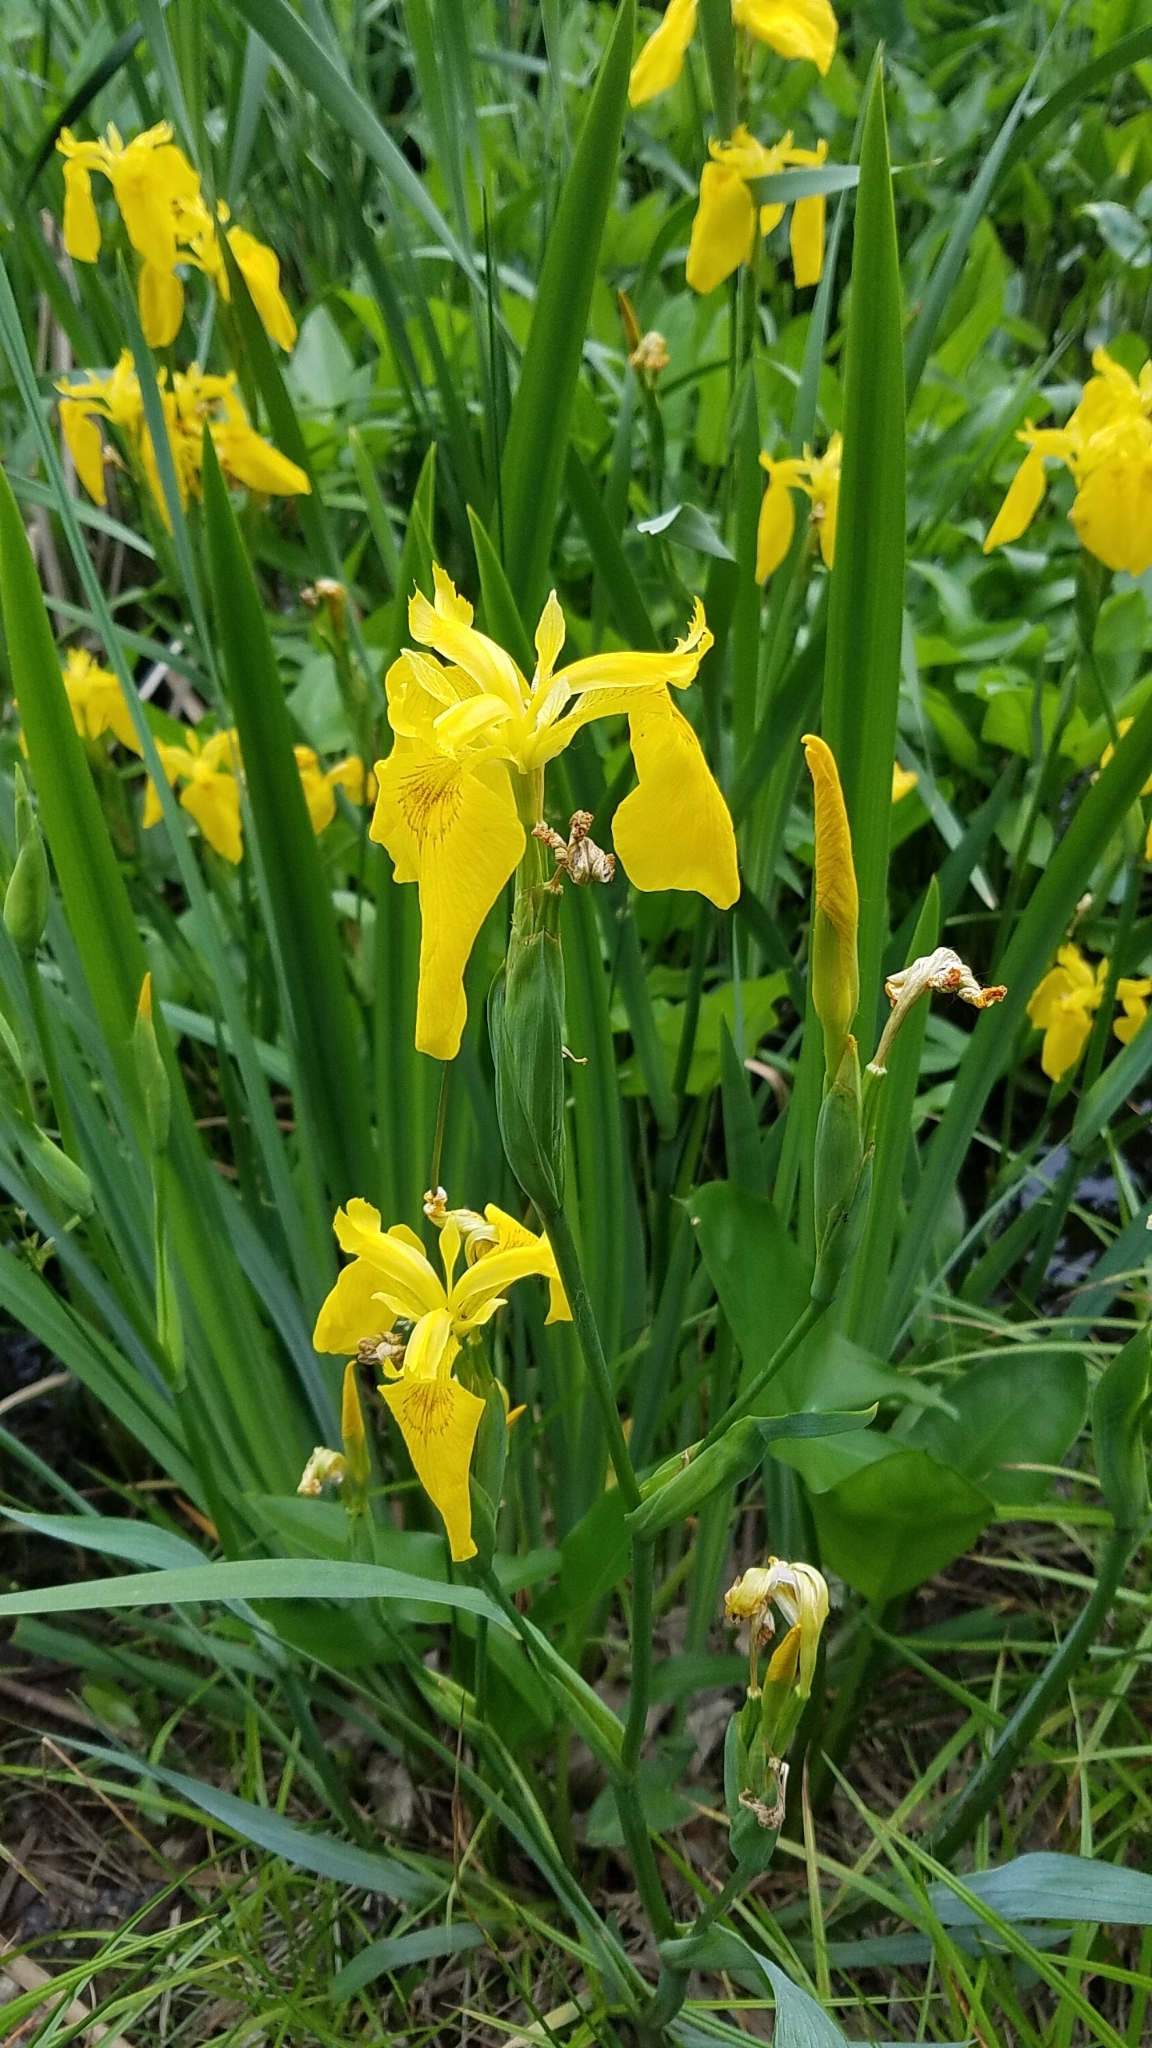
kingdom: Plantae
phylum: Tracheophyta
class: Liliopsida
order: Asparagales
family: Iridaceae
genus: Iris
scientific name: Iris pseudacorus
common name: Yellow flag
